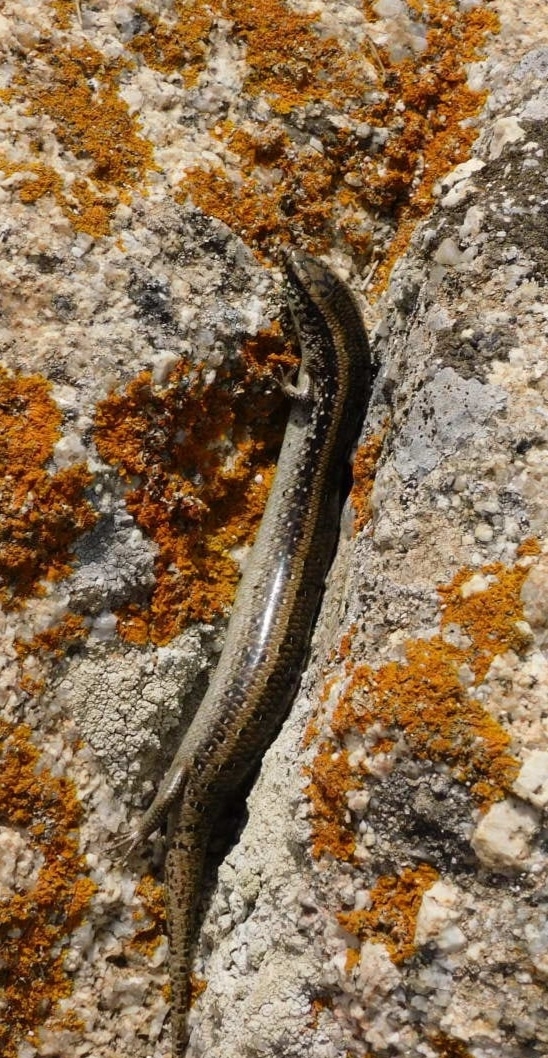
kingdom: Animalia
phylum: Chordata
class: Squamata
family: Scincidae
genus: Chalcides
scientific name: Chalcides ocellatus
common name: Ocellated skink
